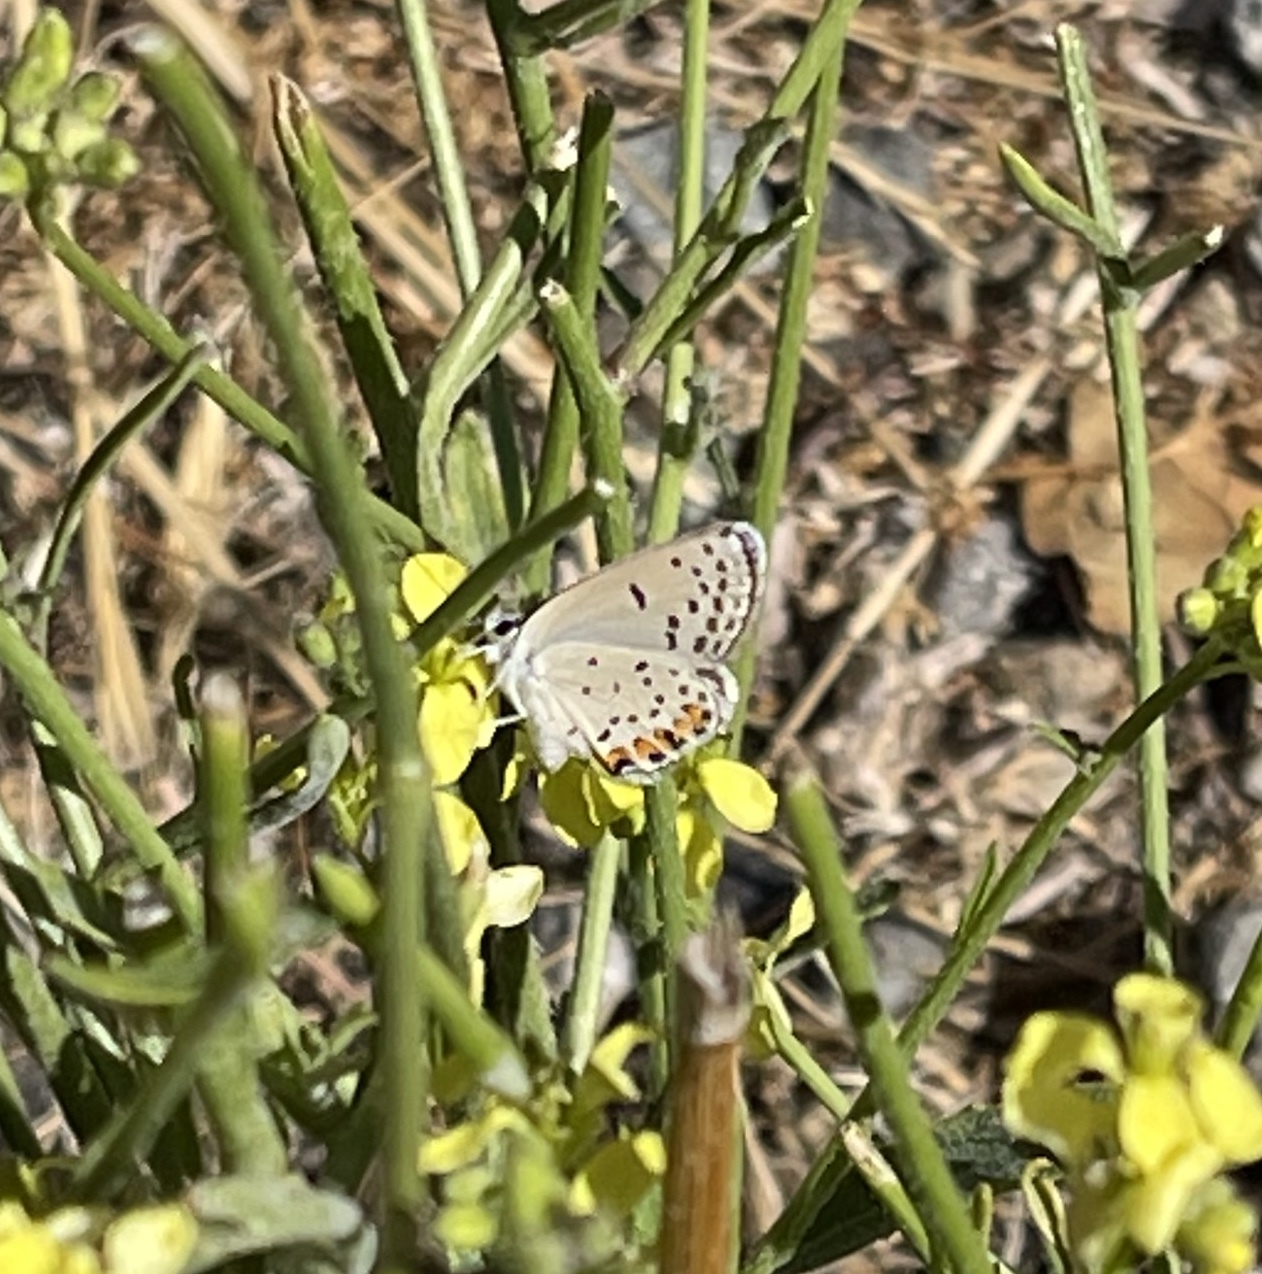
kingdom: Animalia
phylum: Arthropoda
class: Insecta
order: Lepidoptera
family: Lycaenidae
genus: Icaricia
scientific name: Icaricia acmon
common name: Acmon blue
